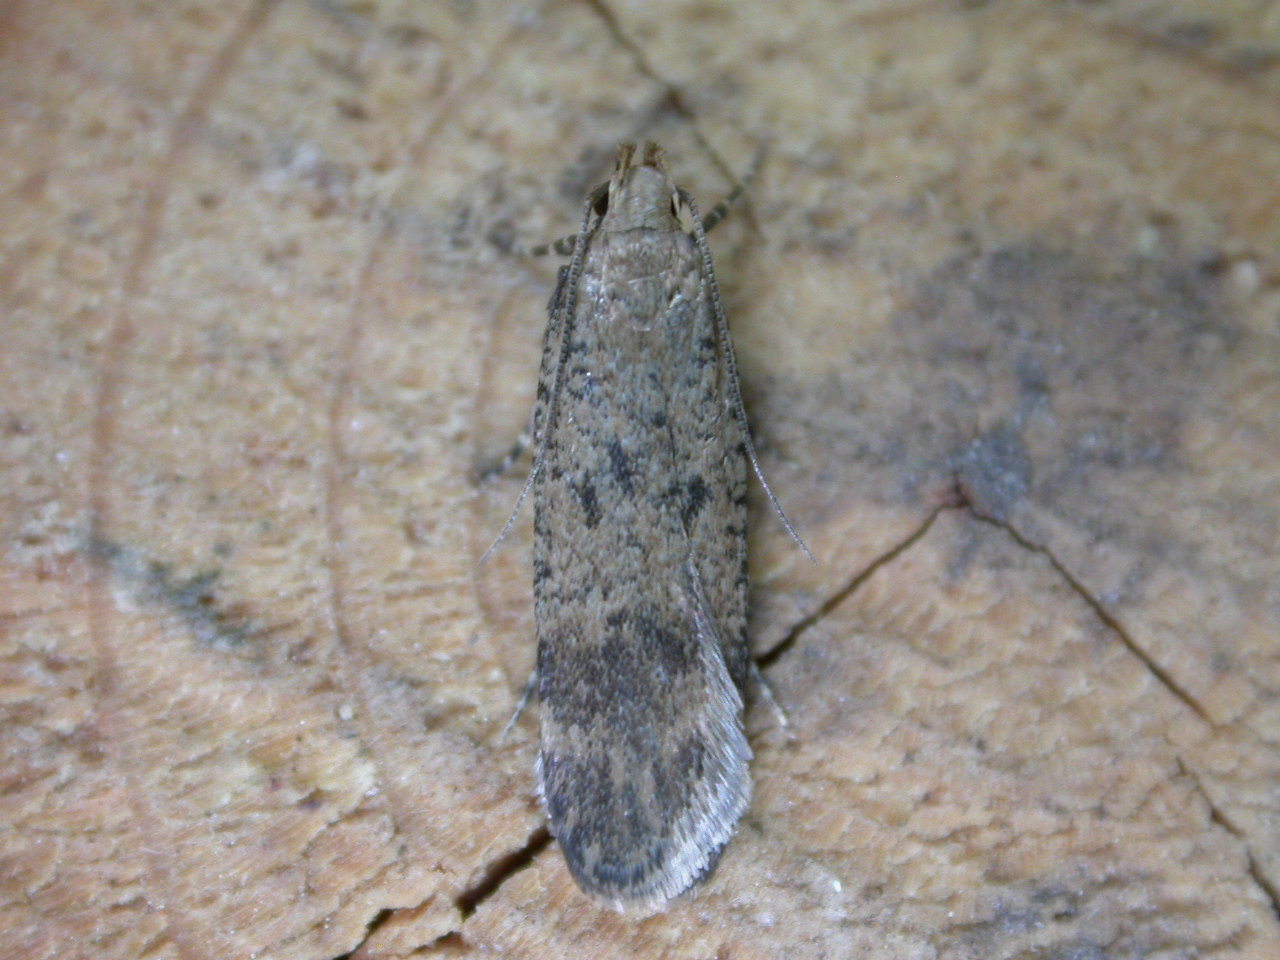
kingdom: Animalia
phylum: Arthropoda
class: Insecta
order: Lepidoptera
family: Gelechiidae
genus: Pexicopia
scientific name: Pexicopia malvella
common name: Hollyhock seed moth
